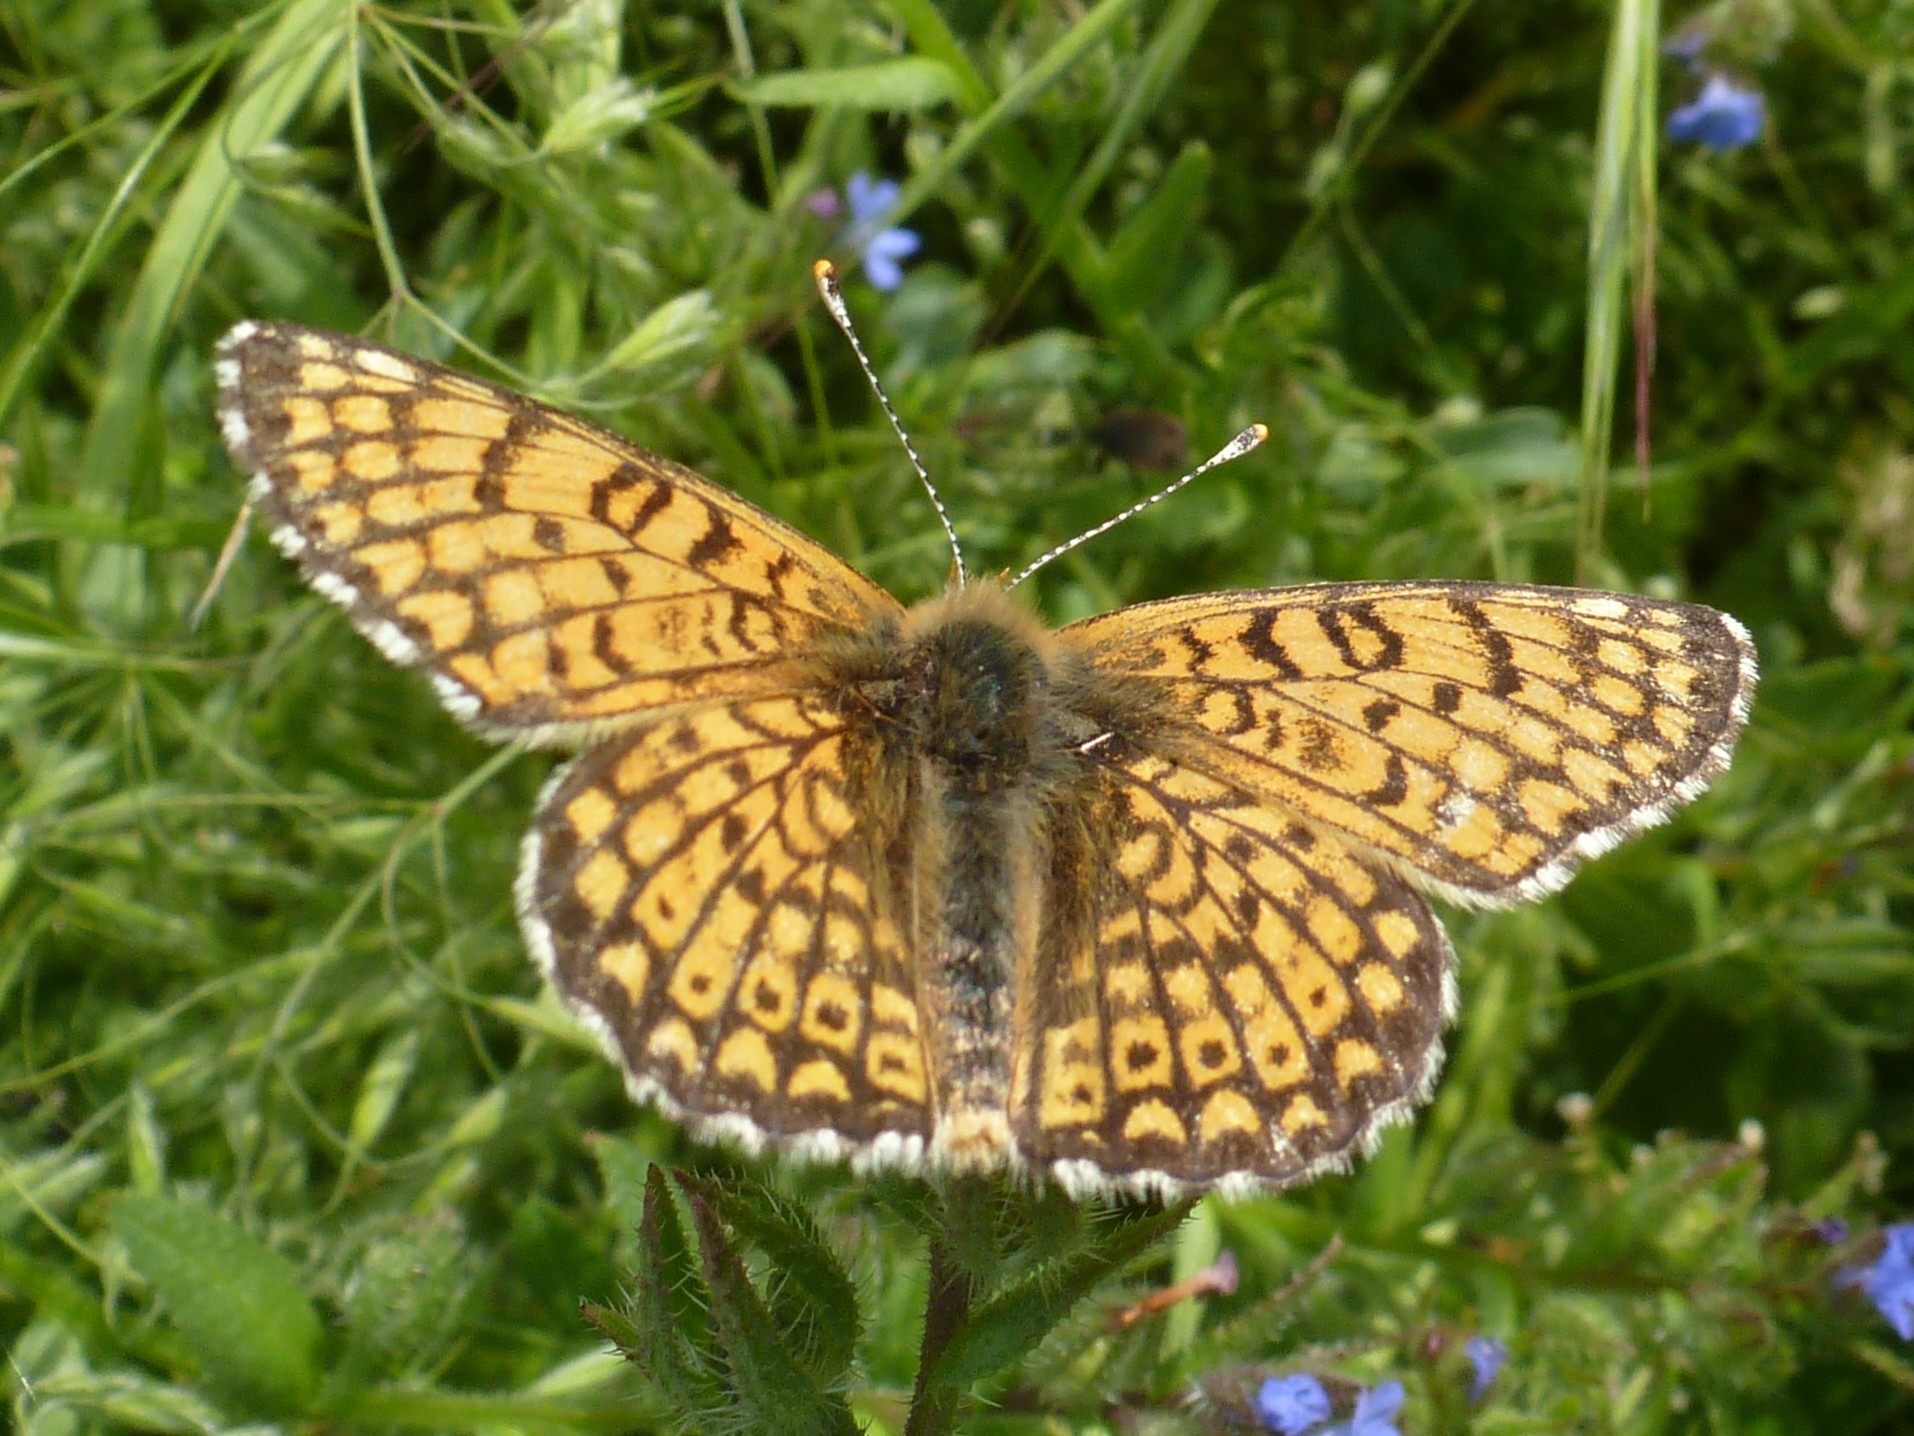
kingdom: Animalia
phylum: Arthropoda
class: Insecta
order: Lepidoptera
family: Nymphalidae
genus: Melitaea
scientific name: Melitaea cinxia
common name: Glanville fritillary
